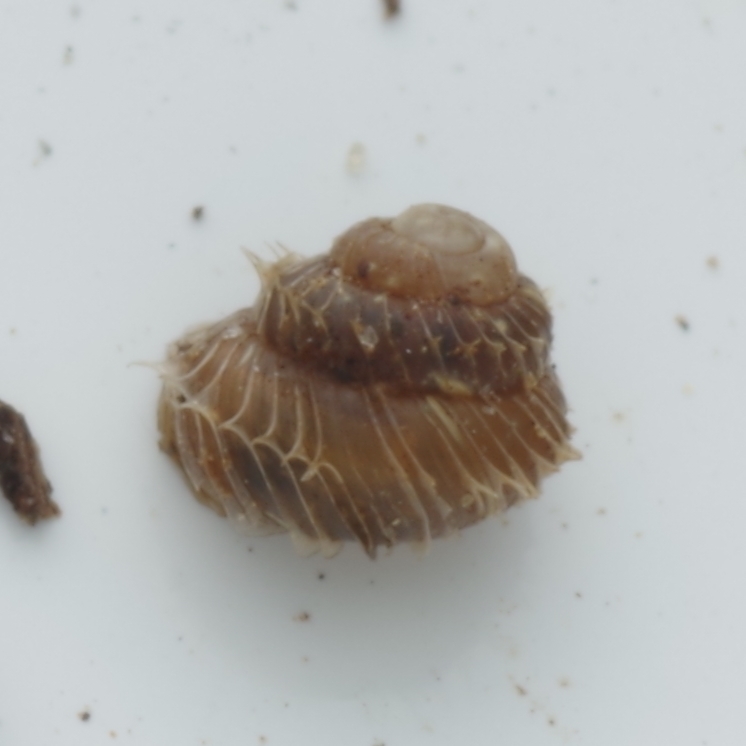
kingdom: Animalia
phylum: Mollusca
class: Gastropoda
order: Stylommatophora
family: Valloniidae
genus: Acanthinula
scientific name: Acanthinula aculeata
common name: Prickly snail
